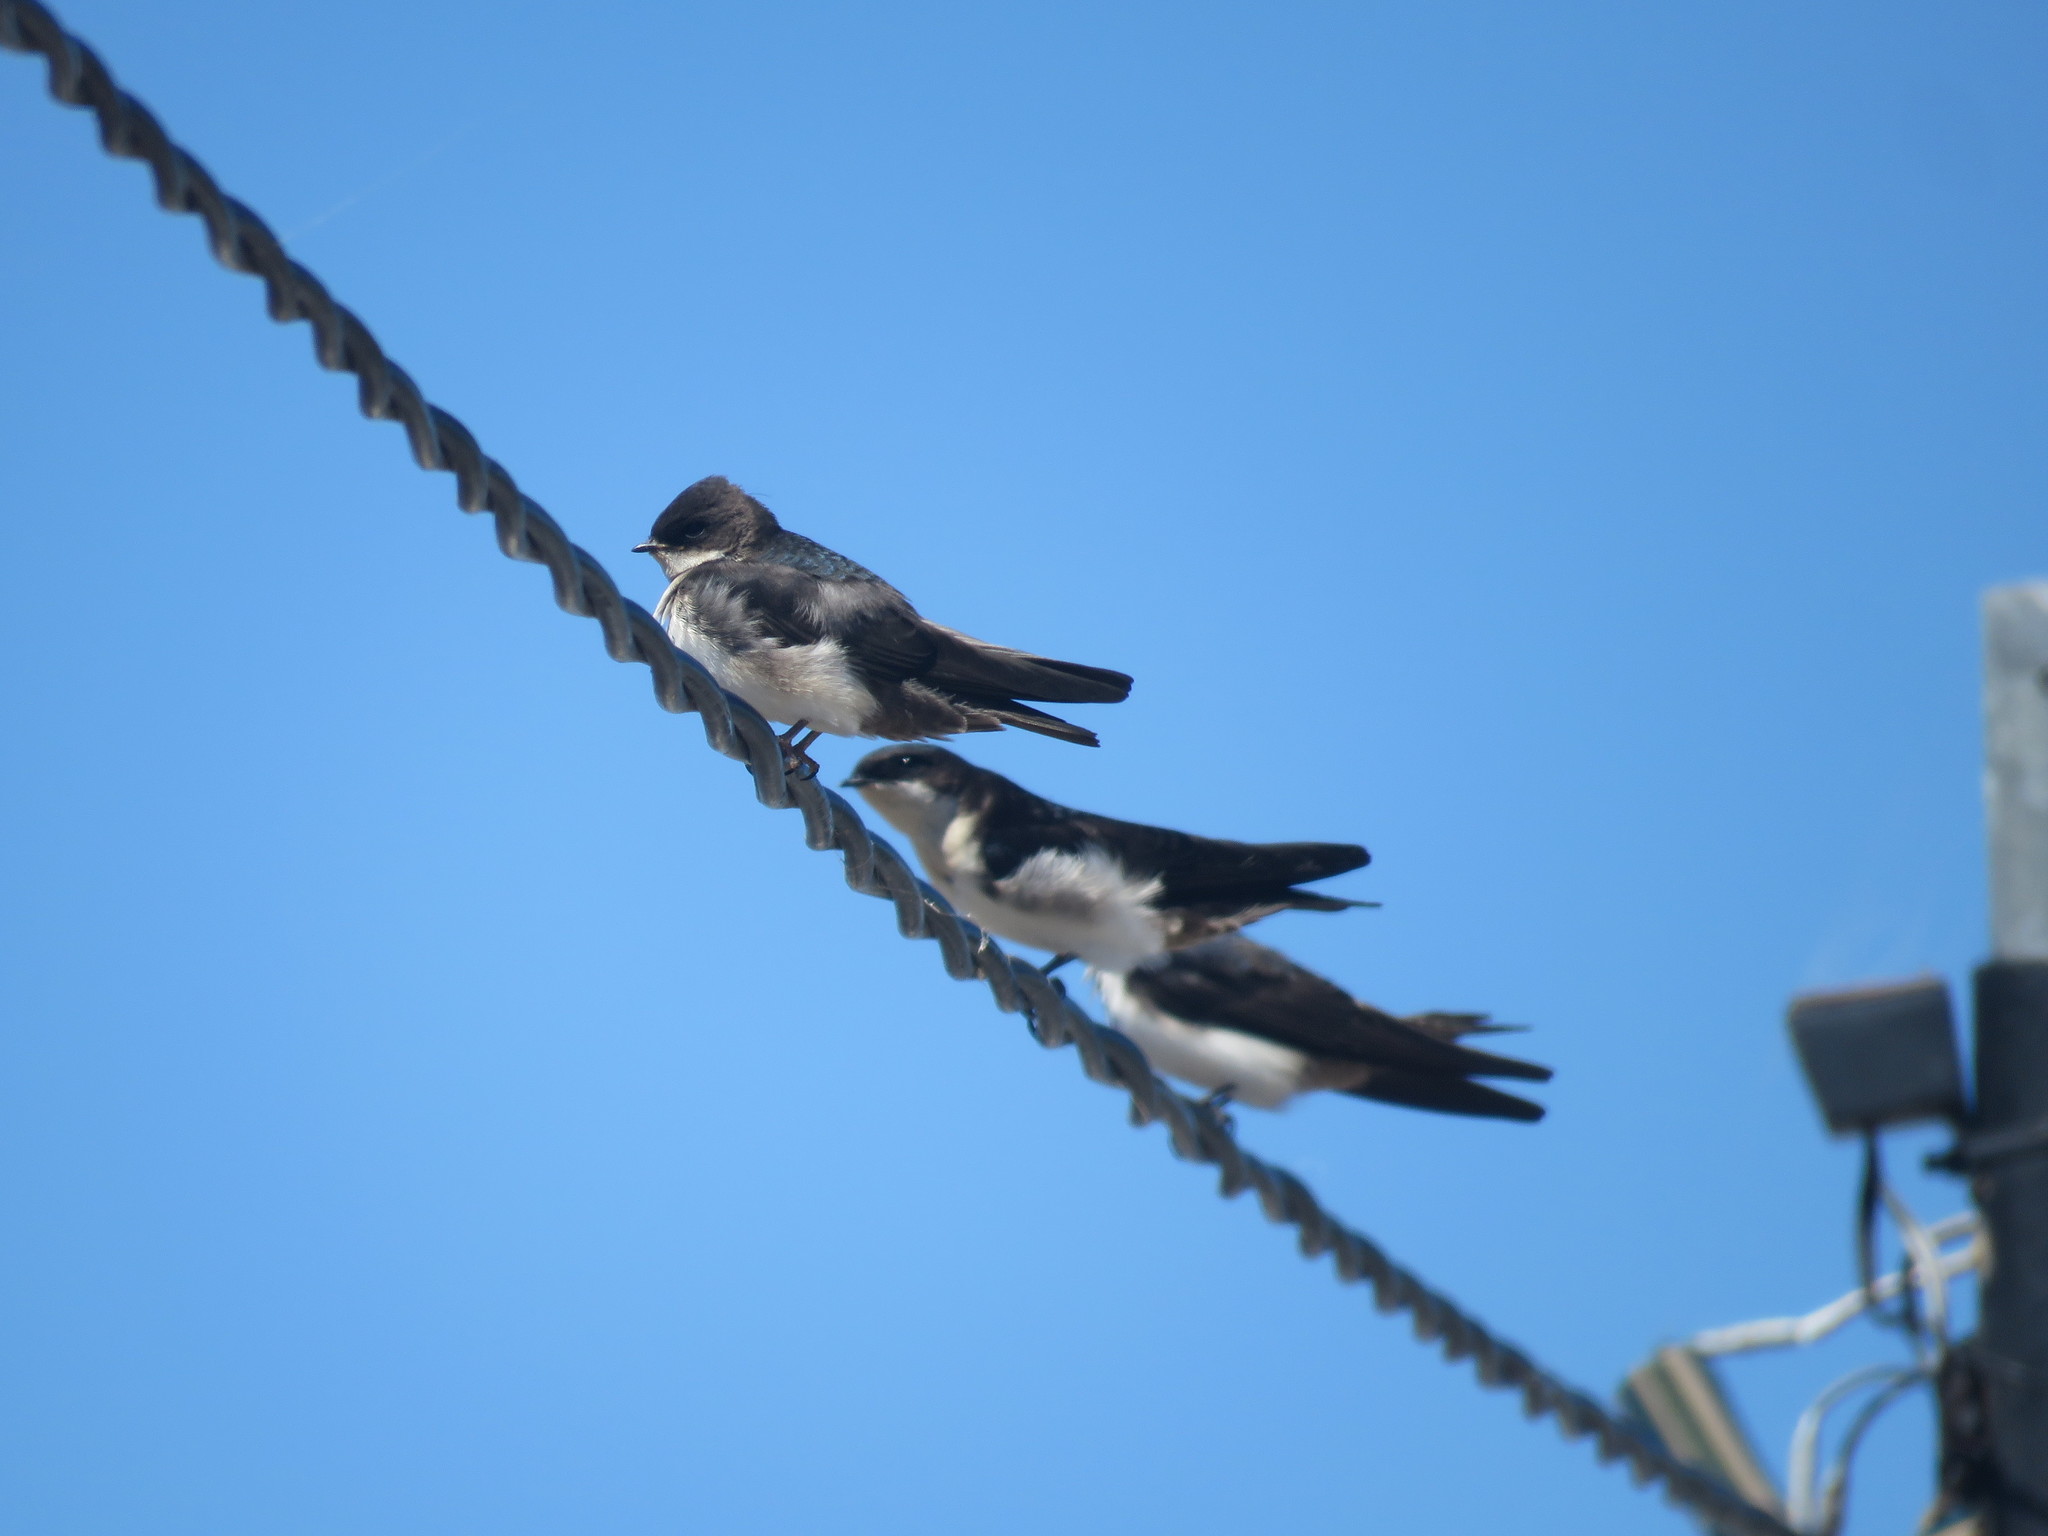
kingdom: Animalia
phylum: Chordata
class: Aves
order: Passeriformes
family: Hirundinidae
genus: Notiochelidon
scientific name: Notiochelidon cyanoleuca
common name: Blue-and-white swallow
